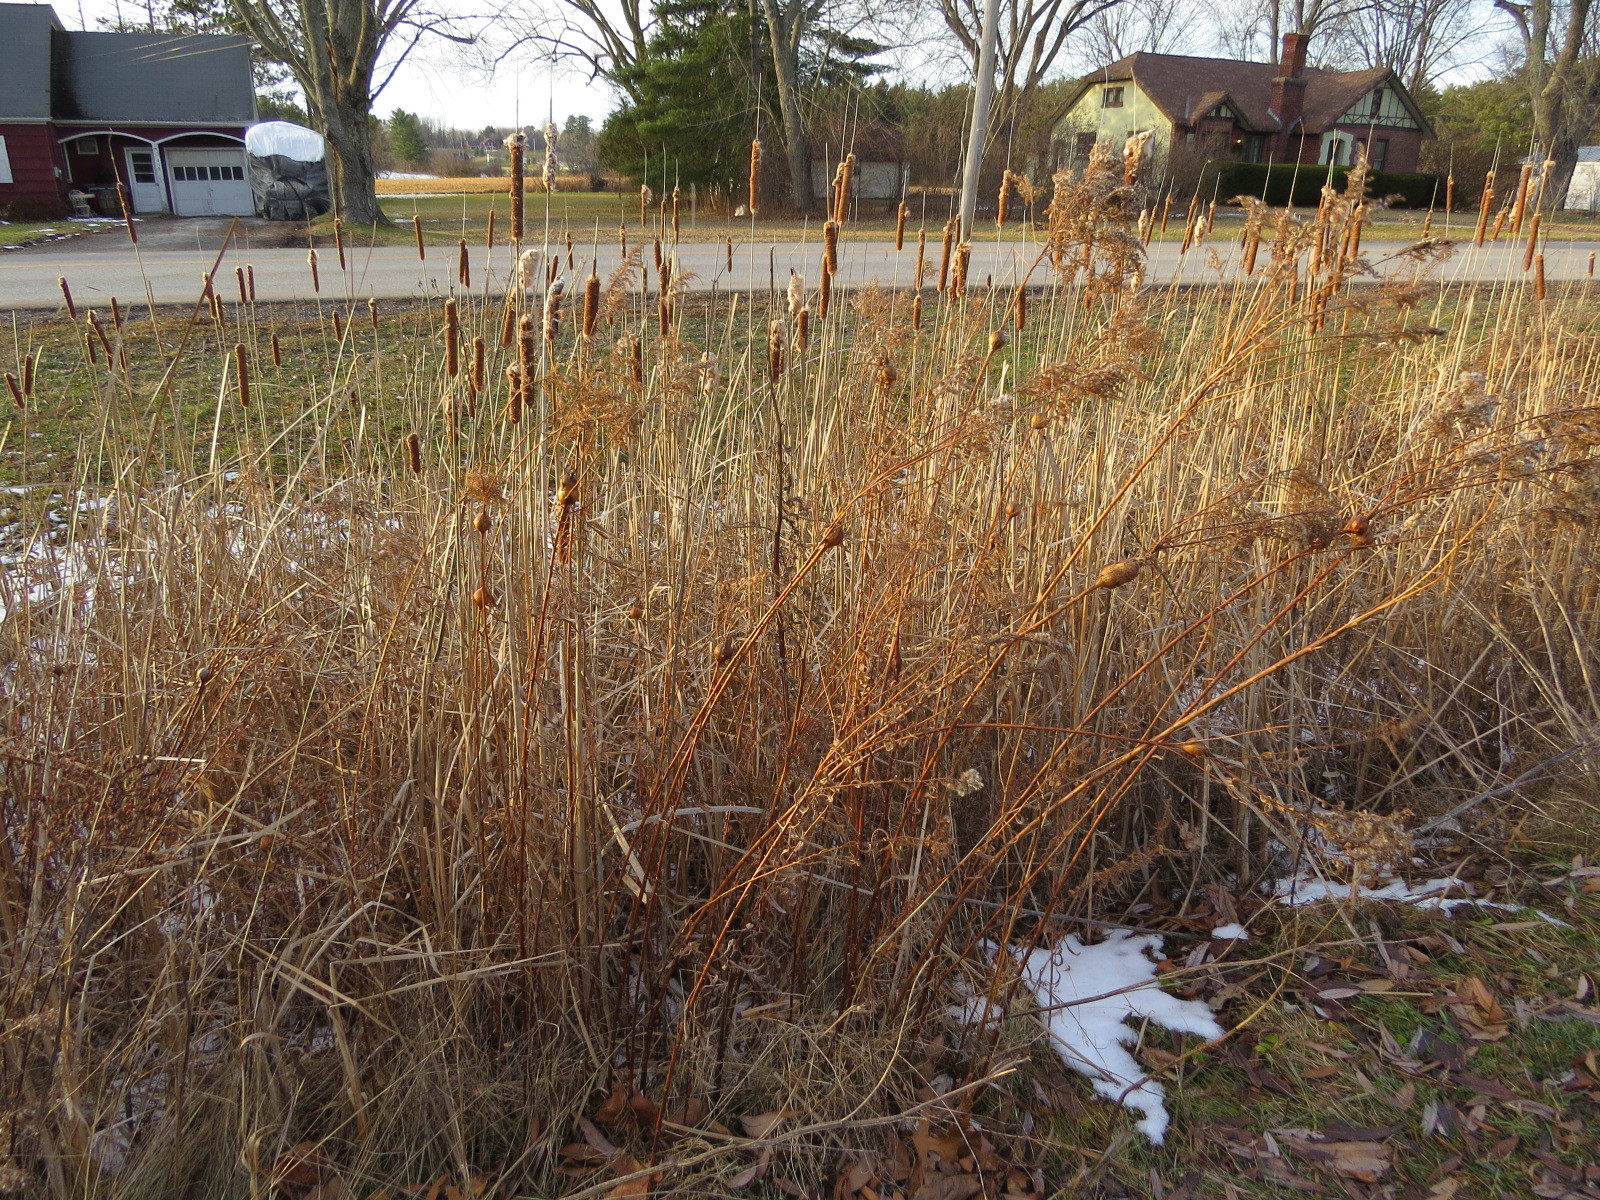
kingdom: Animalia
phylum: Arthropoda
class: Insecta
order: Diptera
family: Tephritidae
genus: Eurosta
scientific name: Eurosta solidaginis
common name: Goldenrod gall fly
